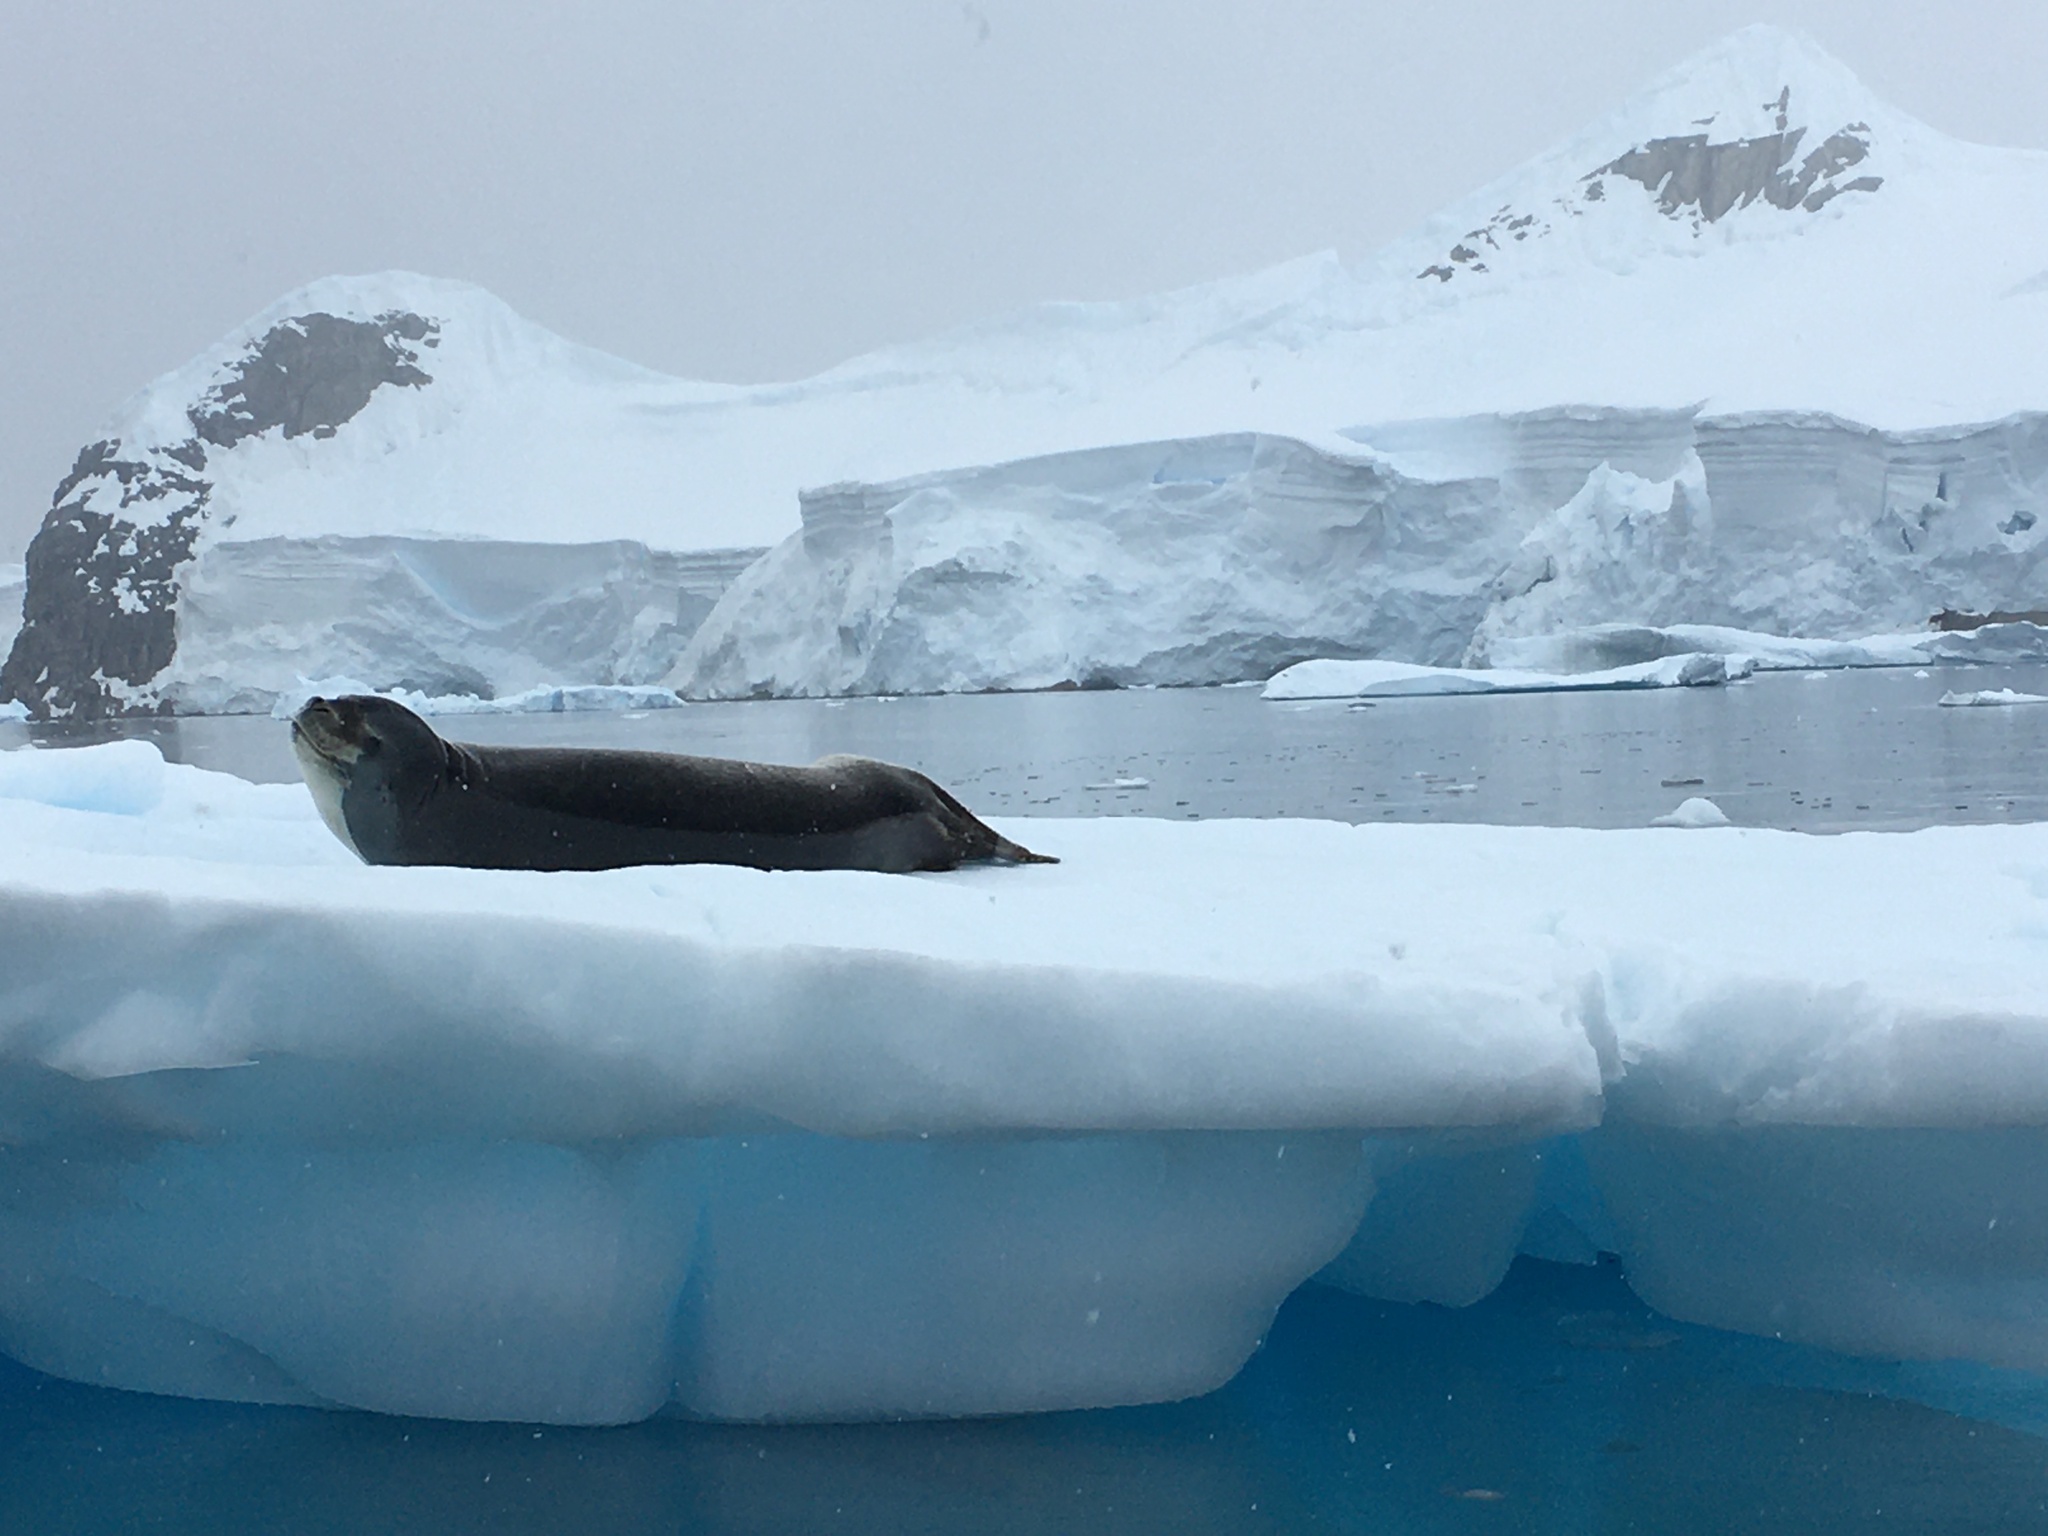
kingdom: Animalia
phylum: Chordata
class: Mammalia
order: Carnivora
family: Phocidae
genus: Hydrurga
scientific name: Hydrurga leptonyx
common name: Leopard seal
